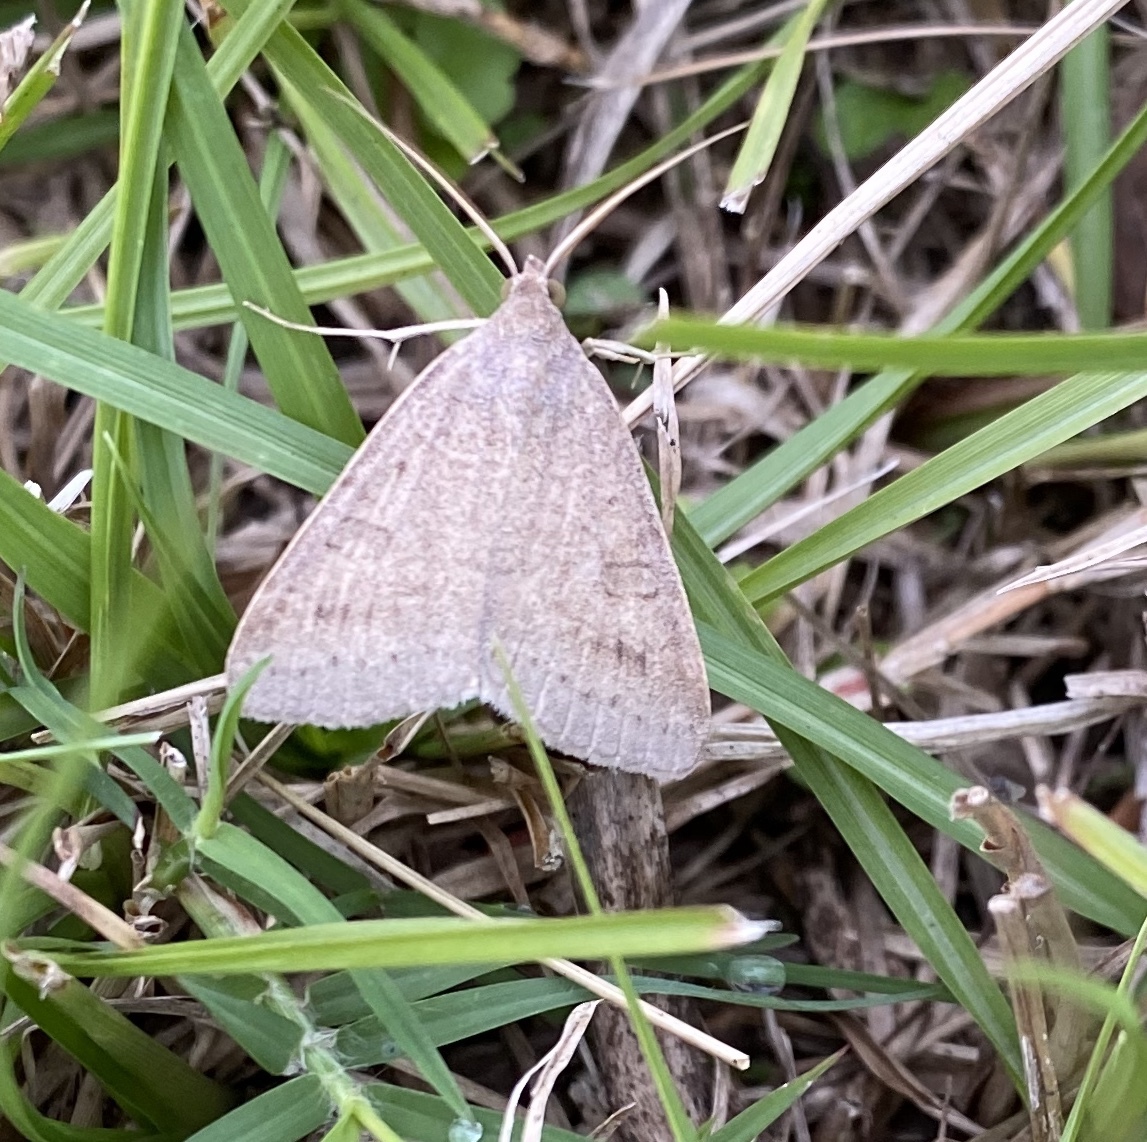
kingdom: Animalia
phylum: Arthropoda
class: Insecta
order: Lepidoptera
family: Erebidae
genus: Caenurgia
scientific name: Caenurgia chloropha
